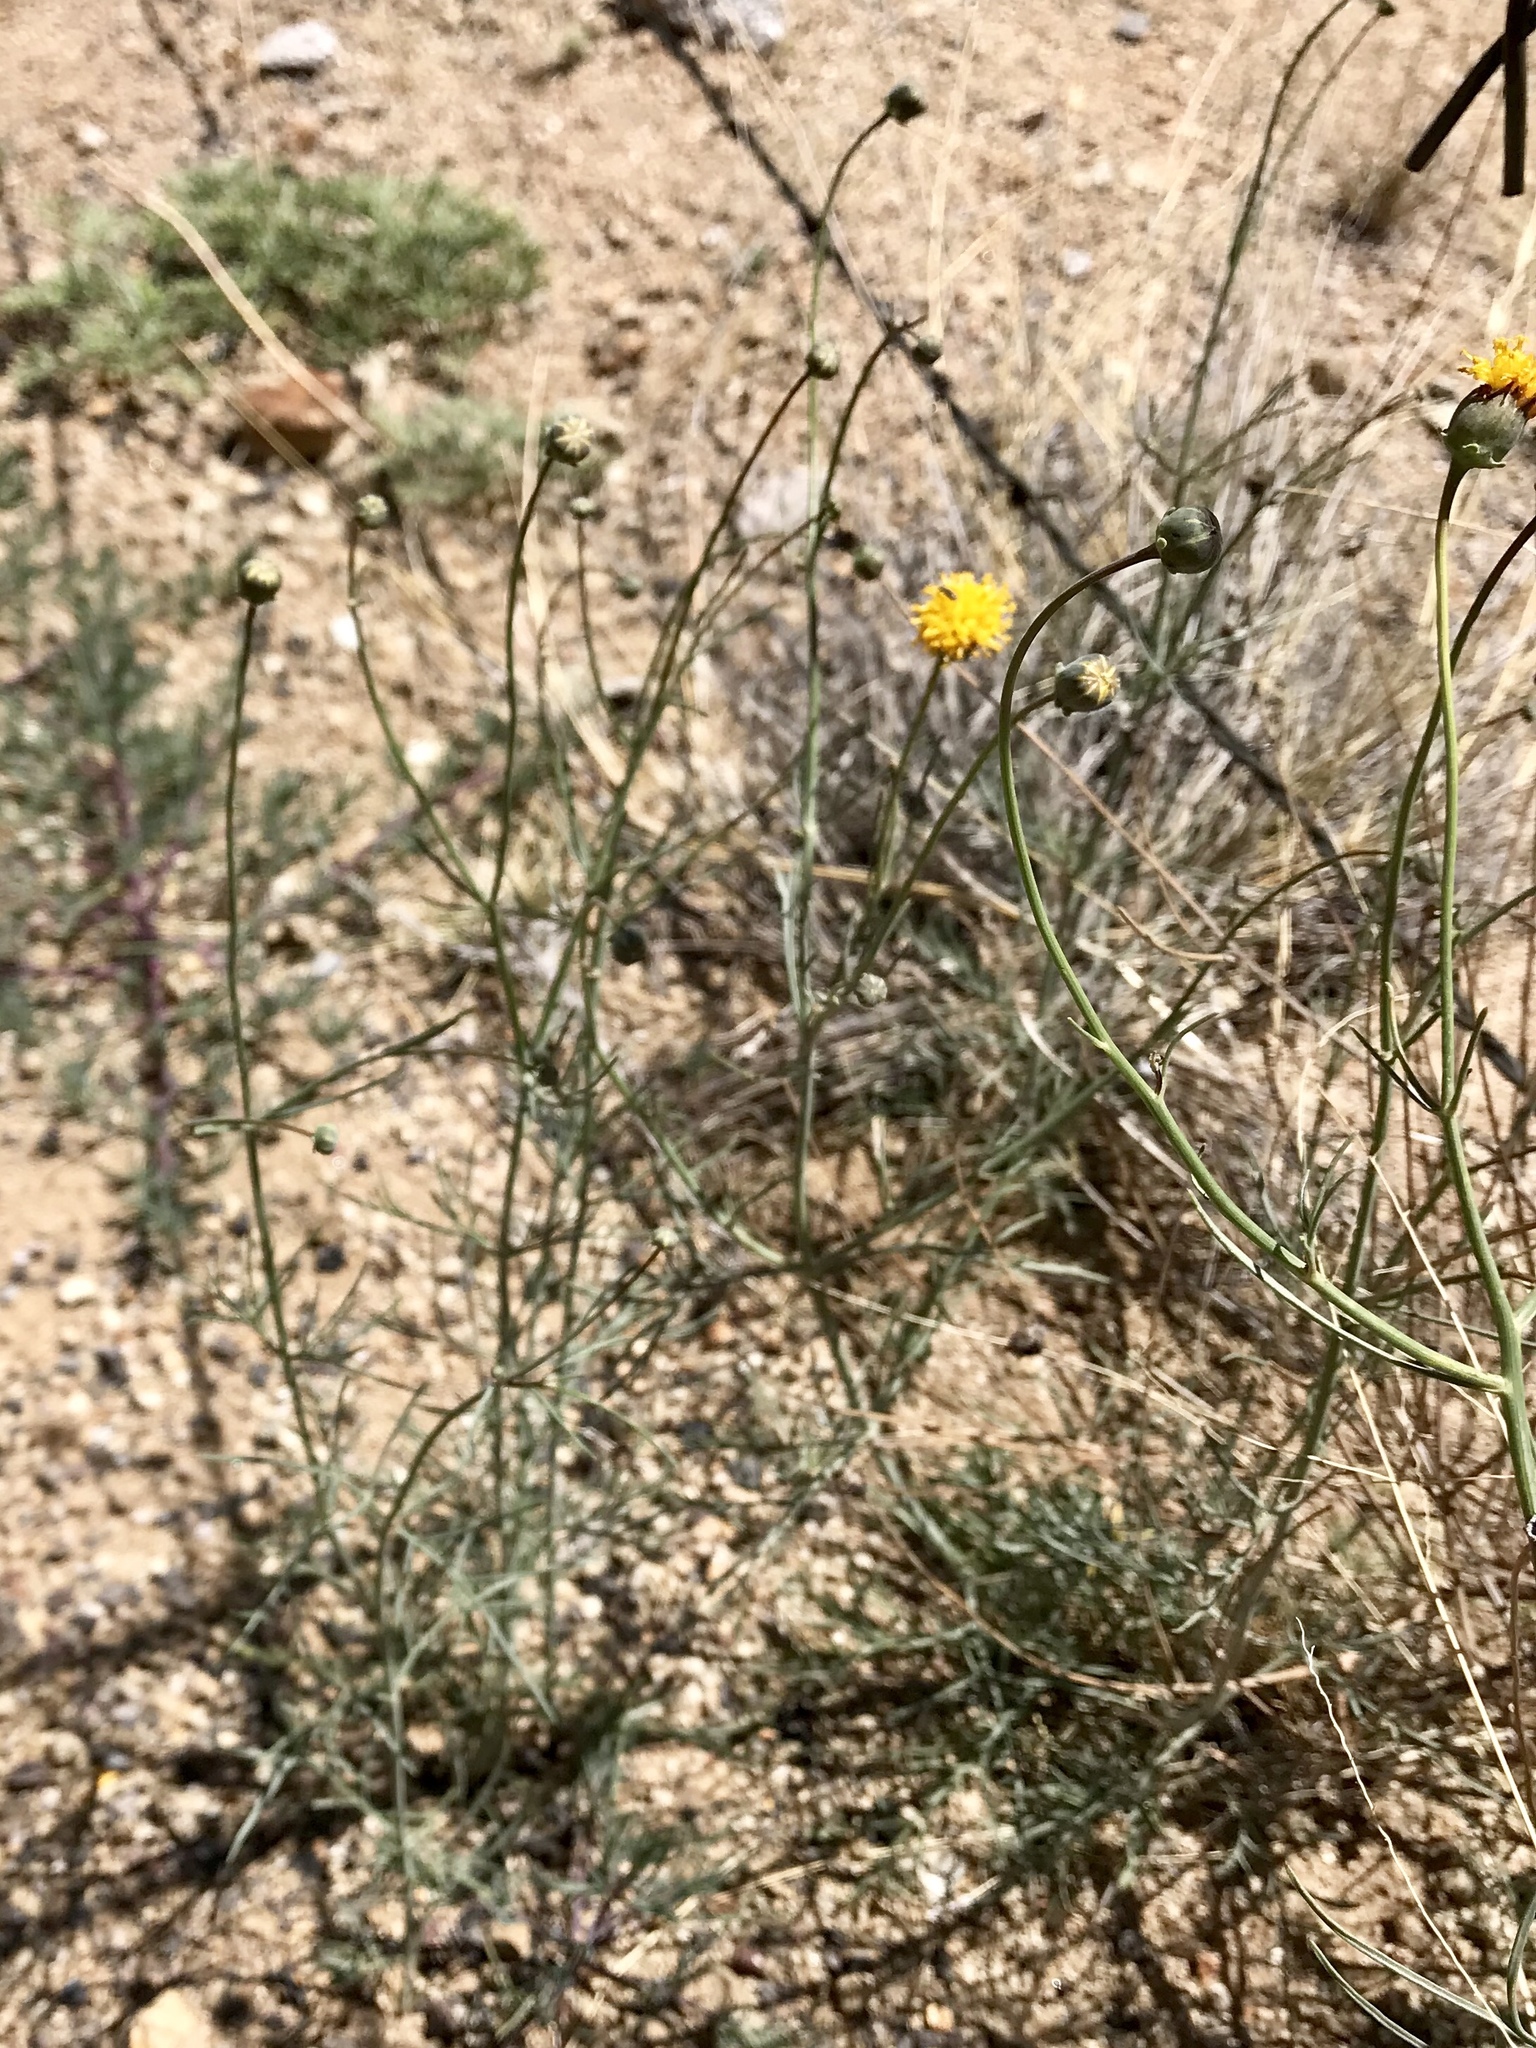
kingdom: Plantae
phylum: Tracheophyta
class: Magnoliopsida
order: Asterales
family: Asteraceae
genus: Thelesperma
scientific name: Thelesperma megapotamicum
